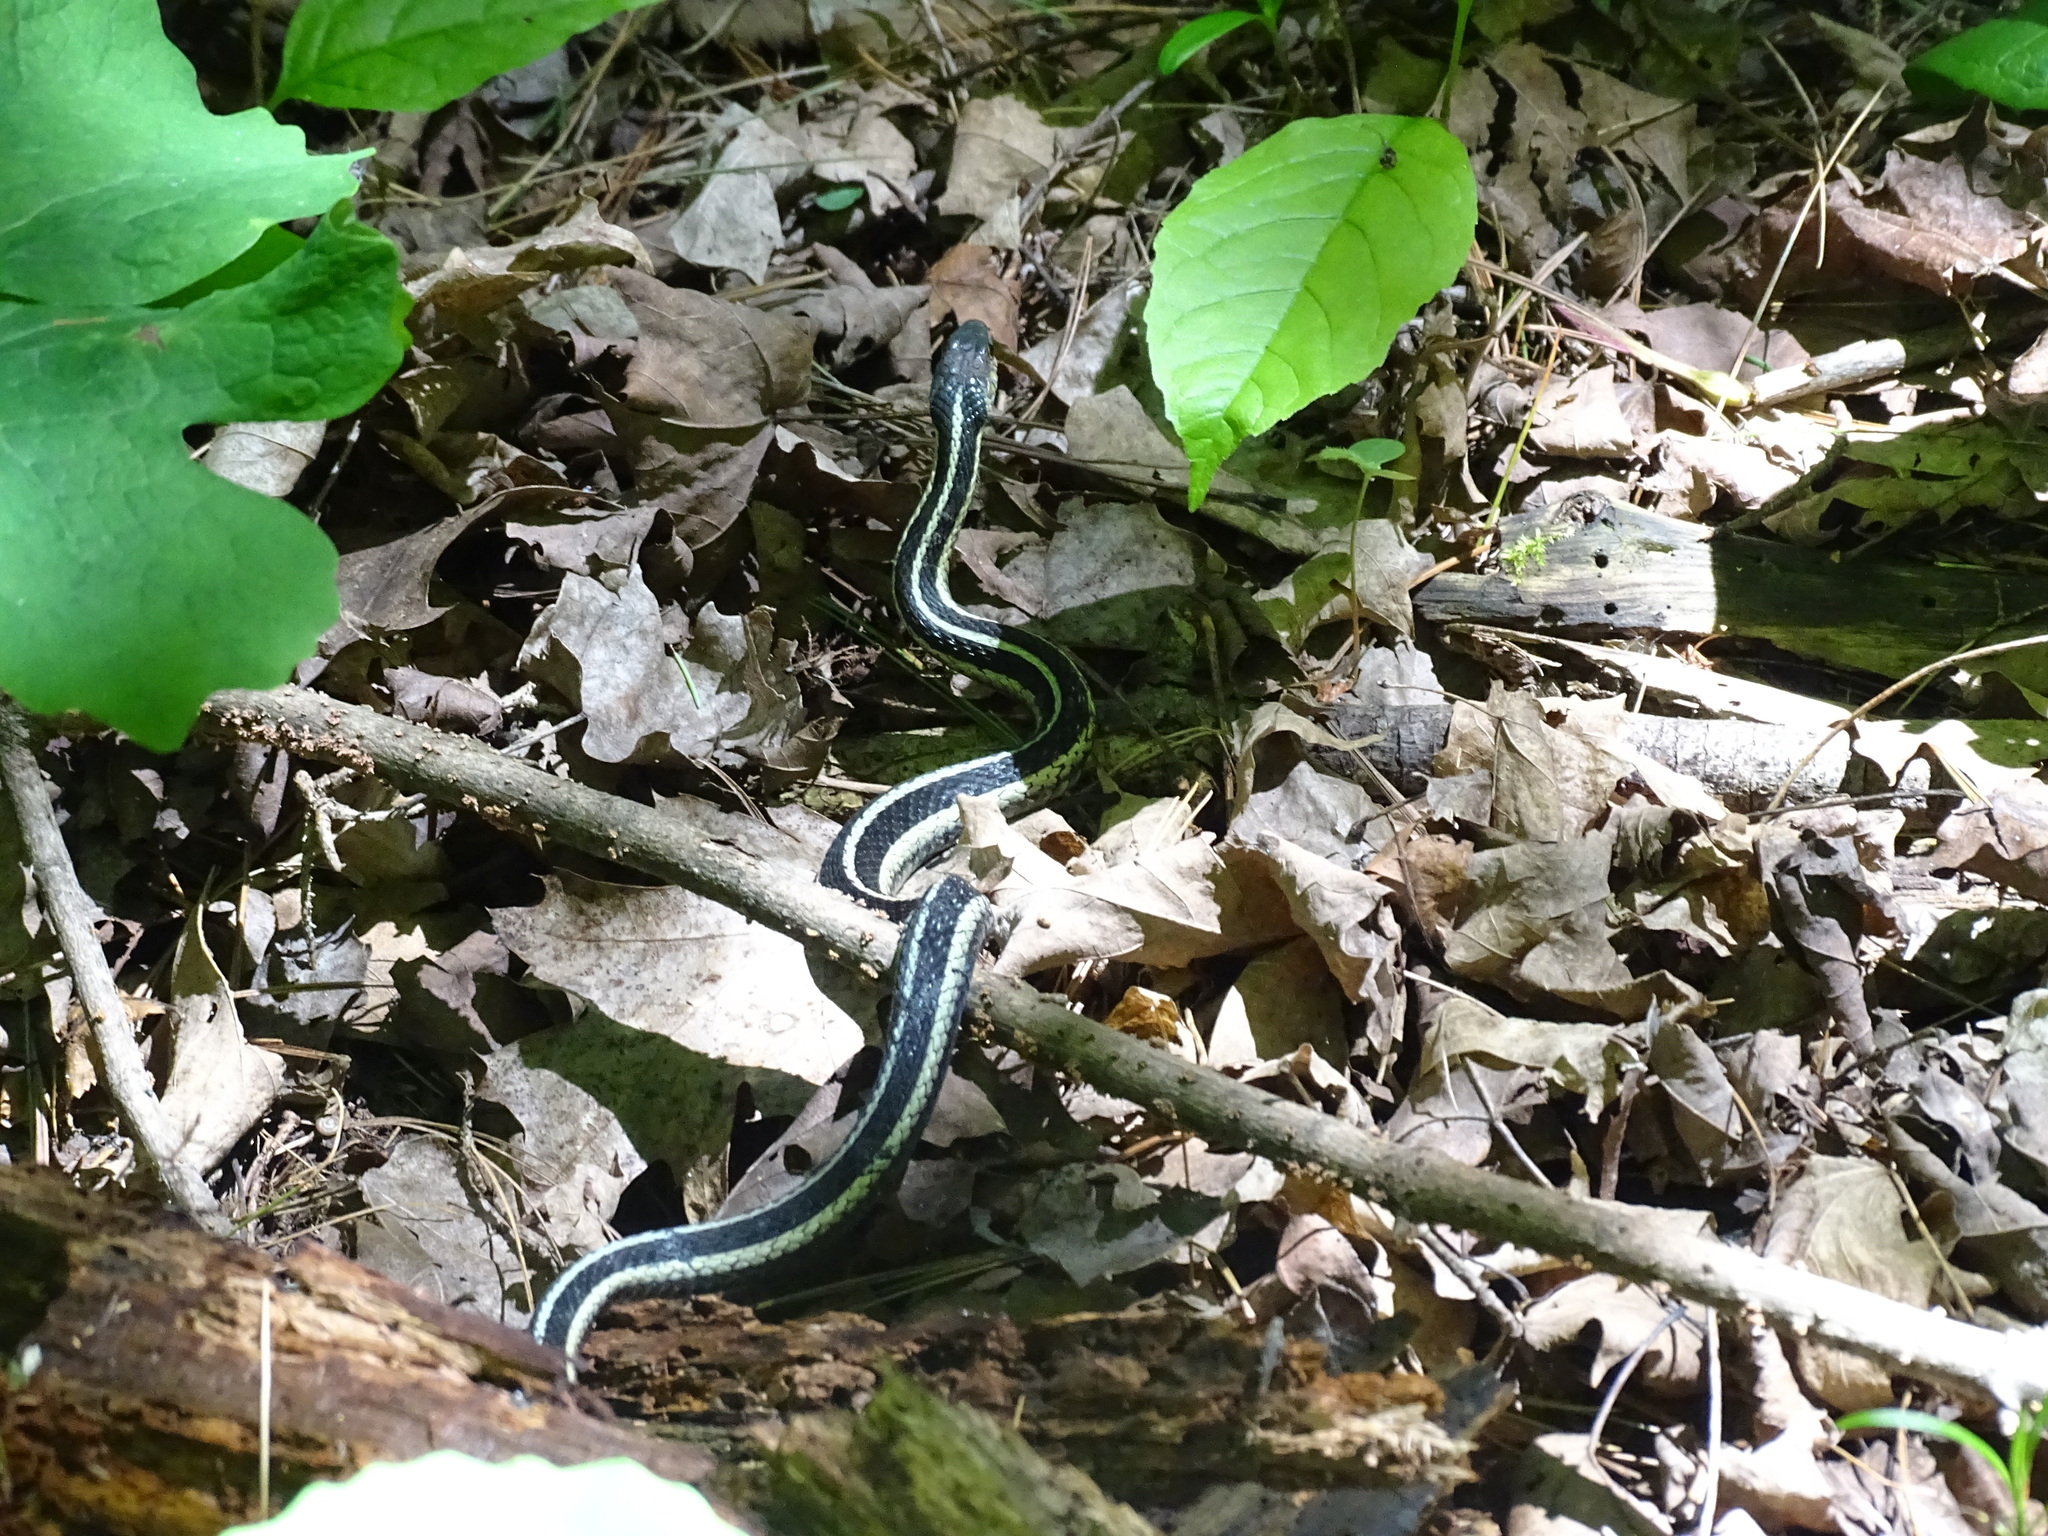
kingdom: Animalia
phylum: Chordata
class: Squamata
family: Colubridae
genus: Thamnophis
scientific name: Thamnophis sirtalis
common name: Common garter snake
